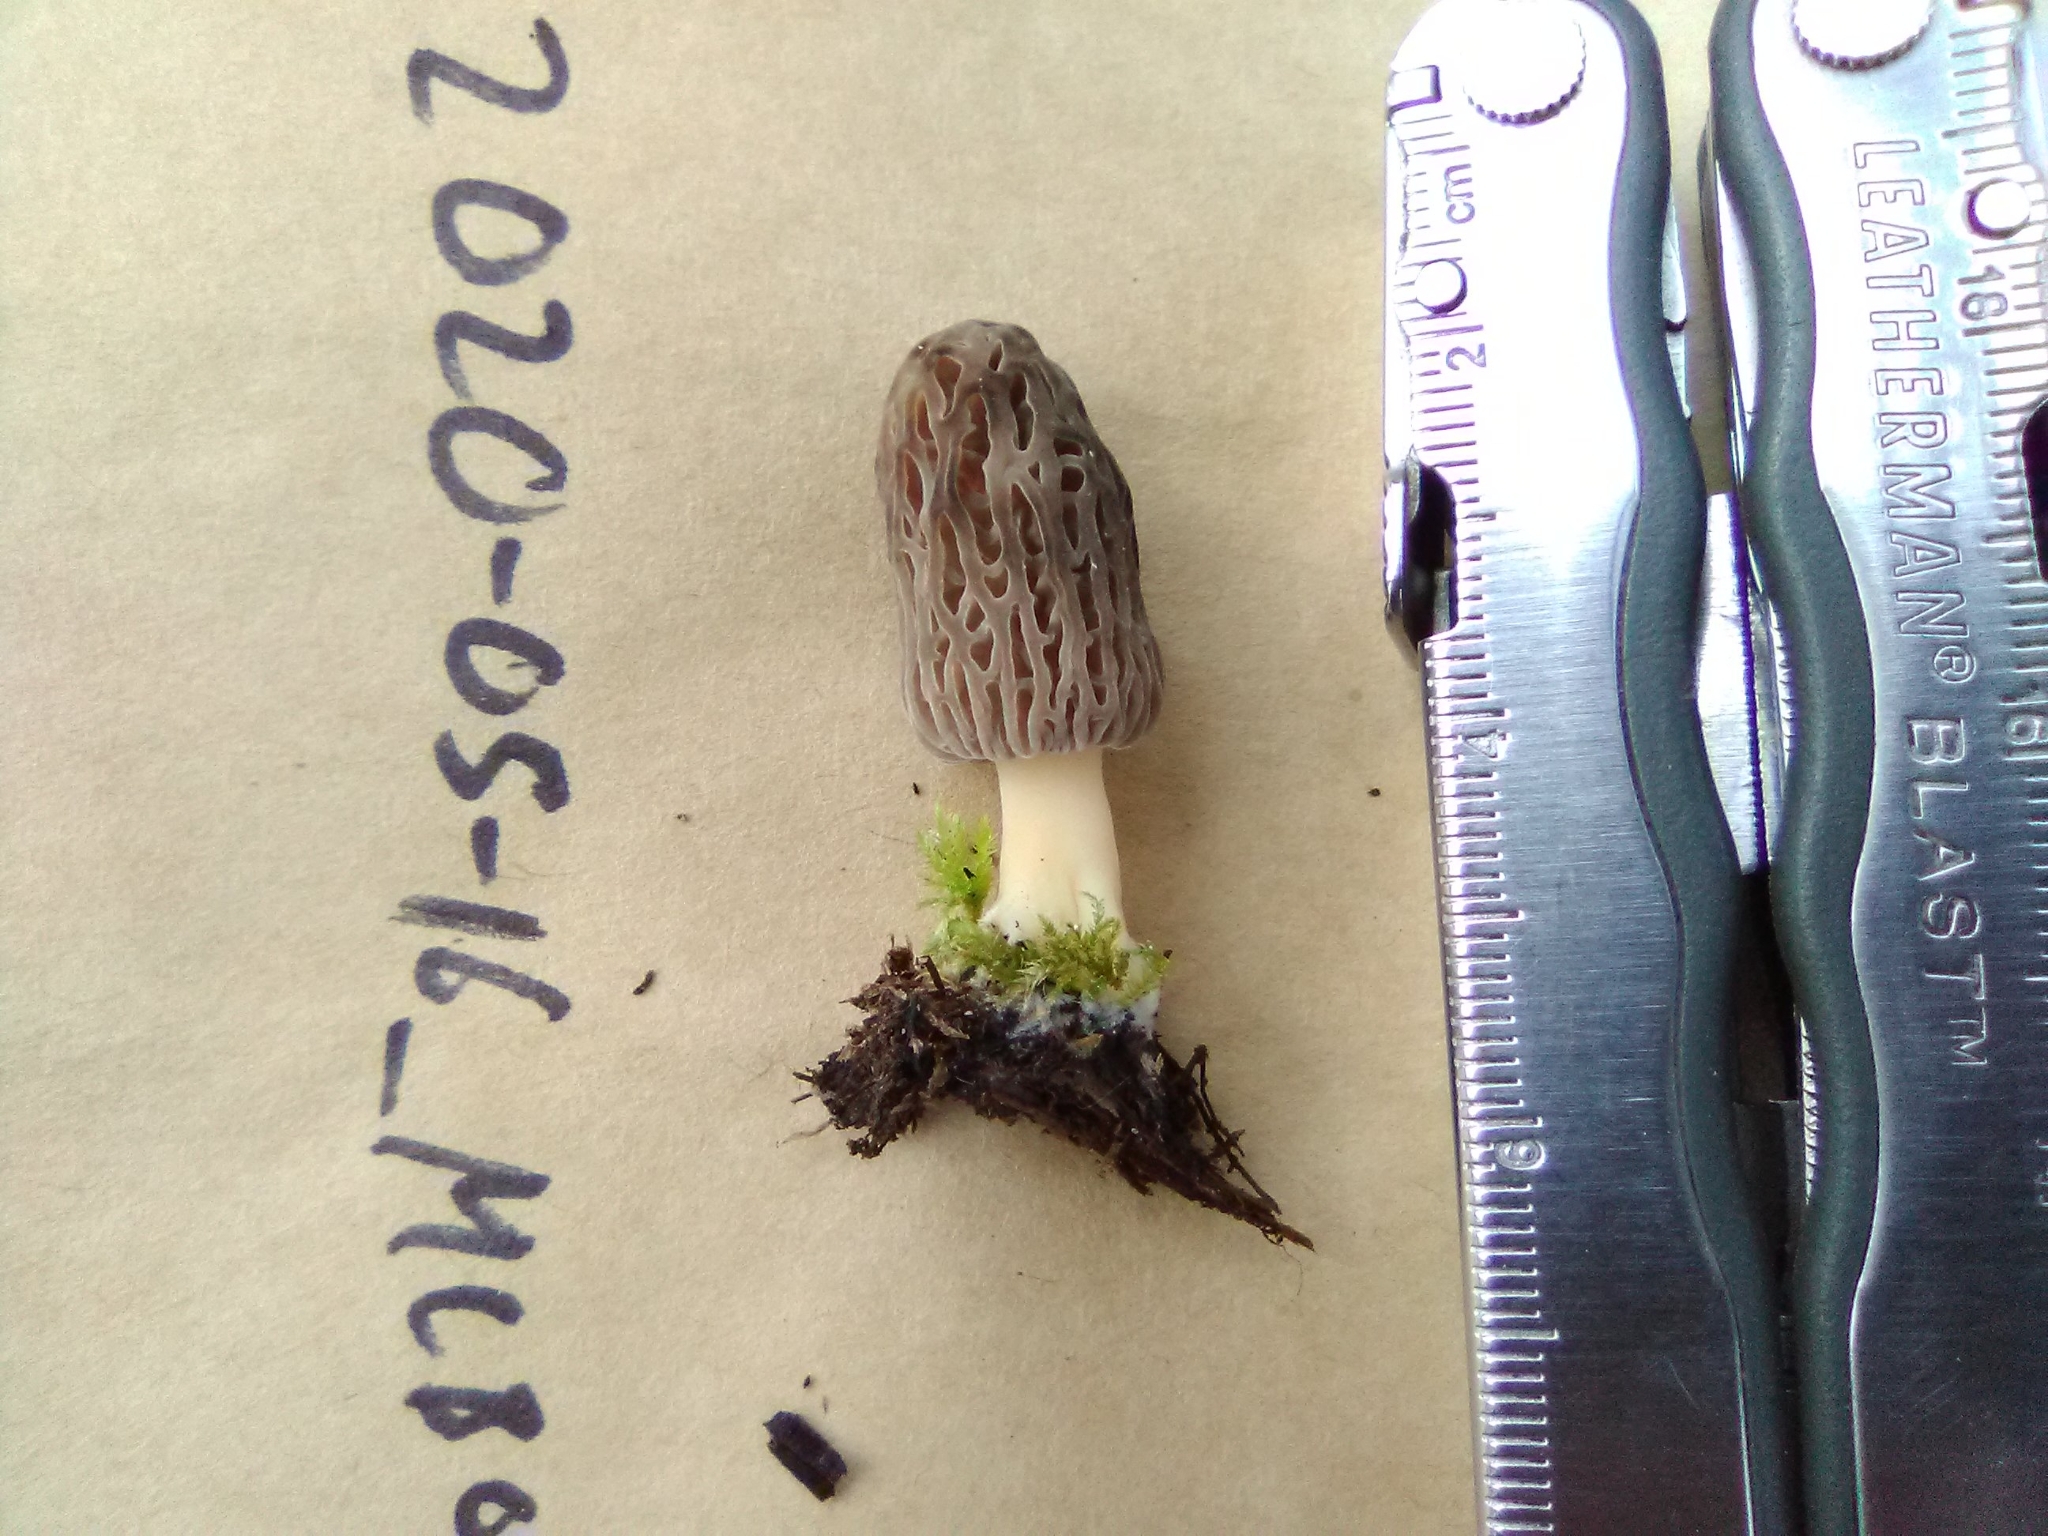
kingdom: Fungi
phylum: Ascomycota
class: Pezizomycetes
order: Pezizales
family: Morchellaceae
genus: Morchella
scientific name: Morchella pulchella
